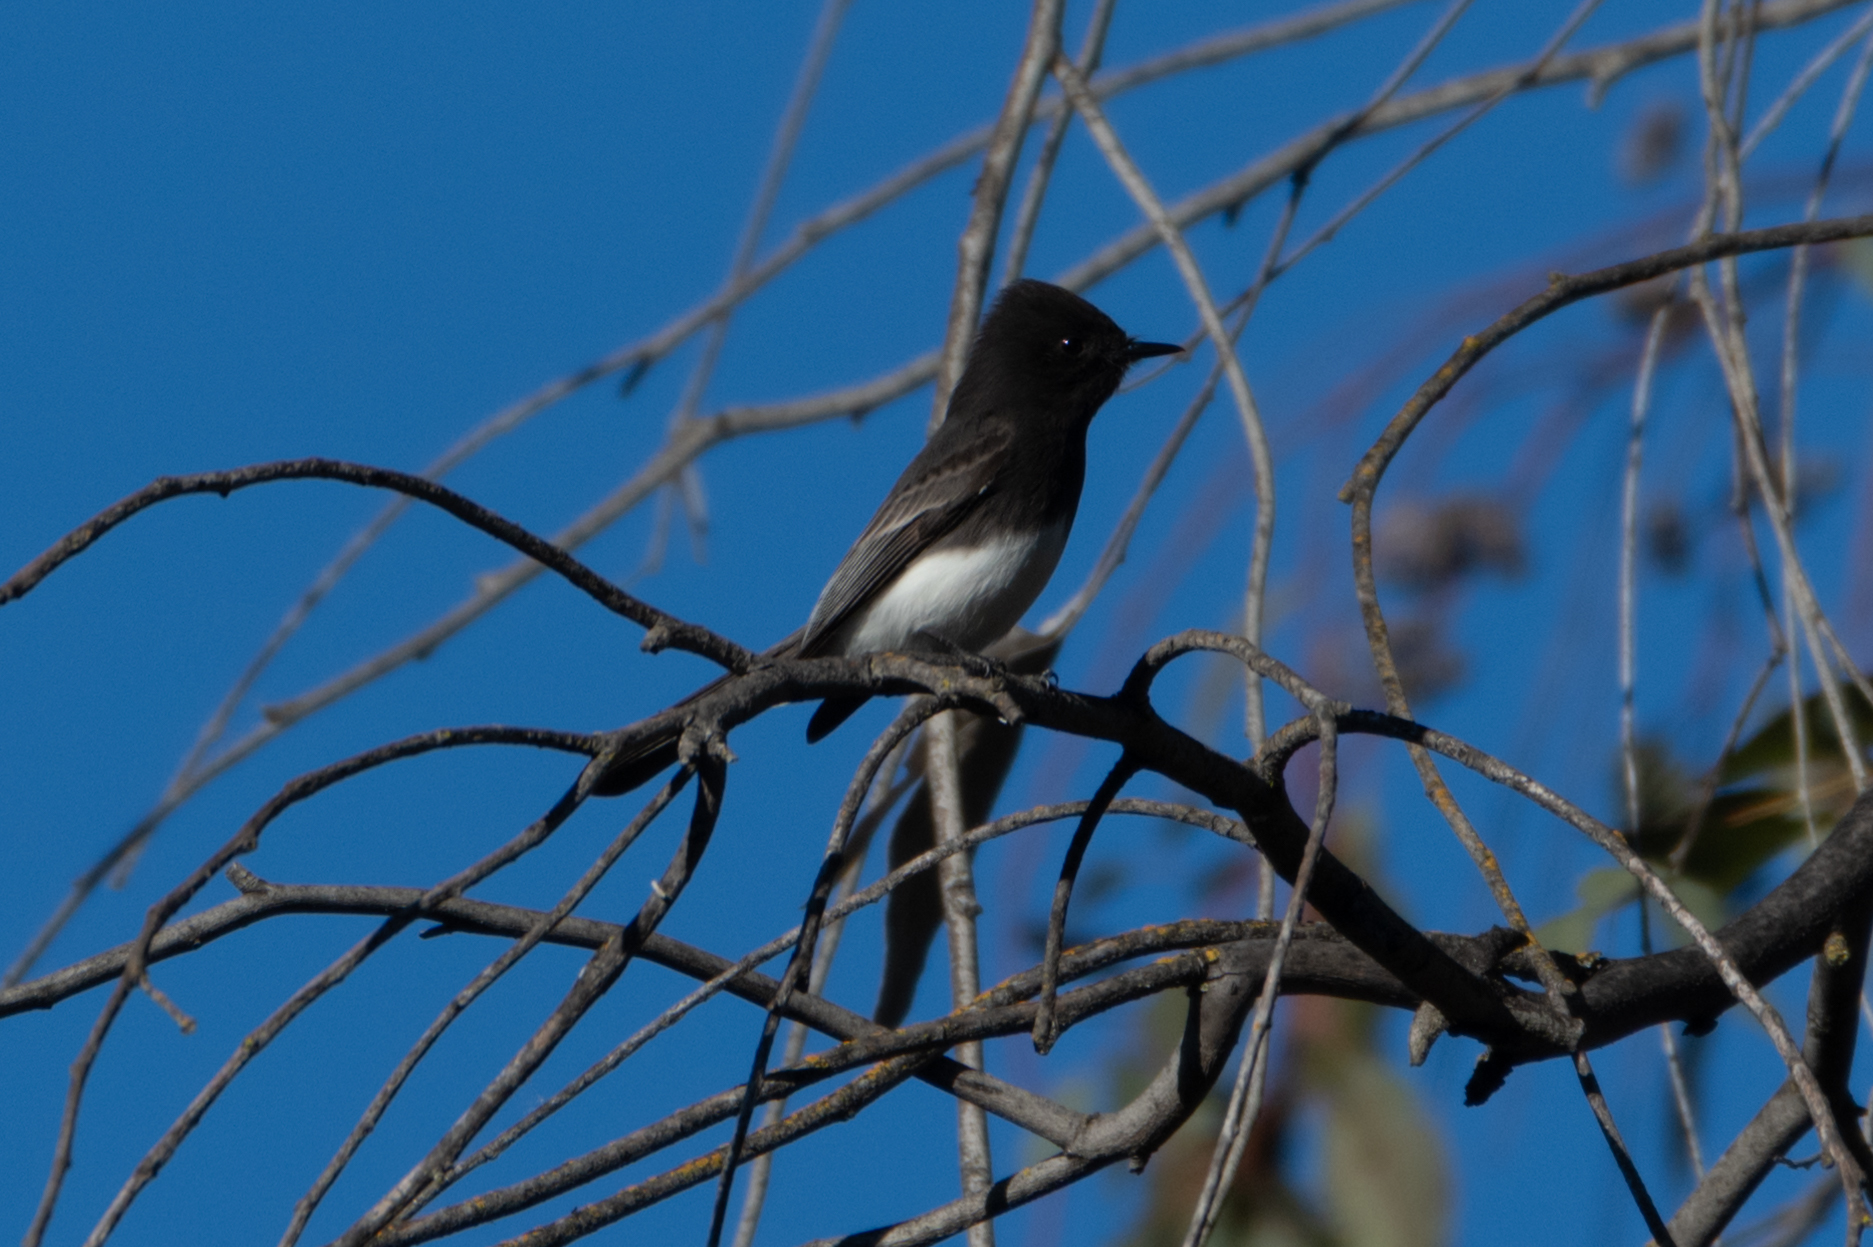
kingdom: Animalia
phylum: Chordata
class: Aves
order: Passeriformes
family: Tyrannidae
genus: Sayornis
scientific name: Sayornis nigricans
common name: Black phoebe
